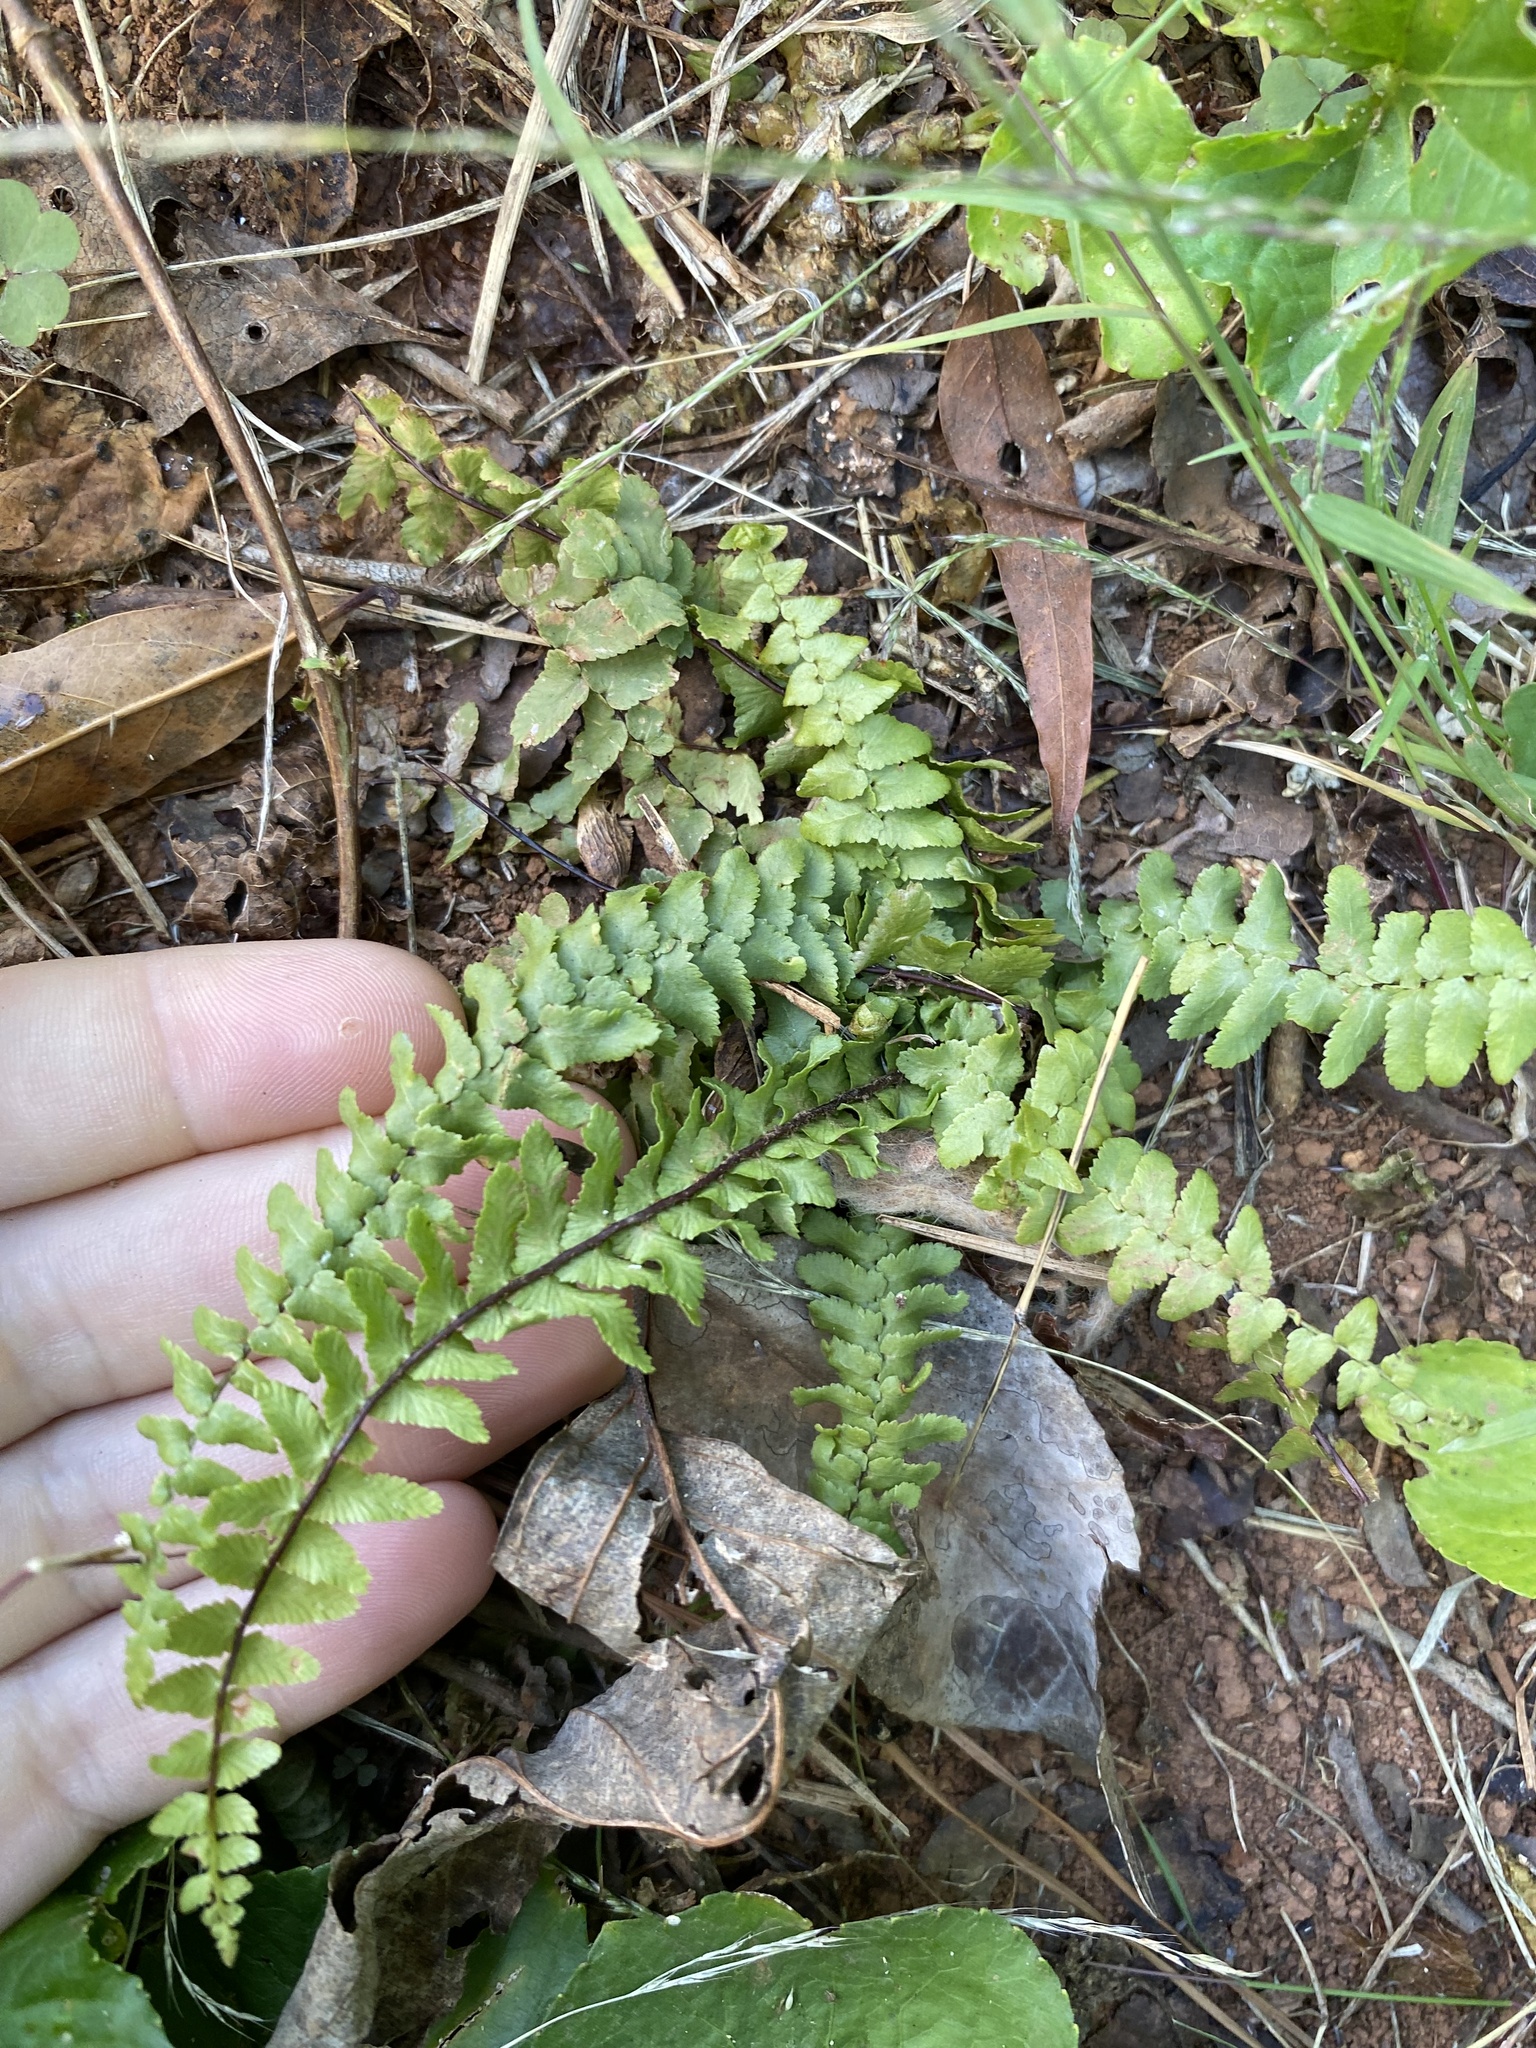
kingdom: Plantae
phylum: Tracheophyta
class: Polypodiopsida
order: Polypodiales
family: Aspleniaceae
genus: Asplenium
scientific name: Asplenium platyneuron
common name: Ebony spleenwort
